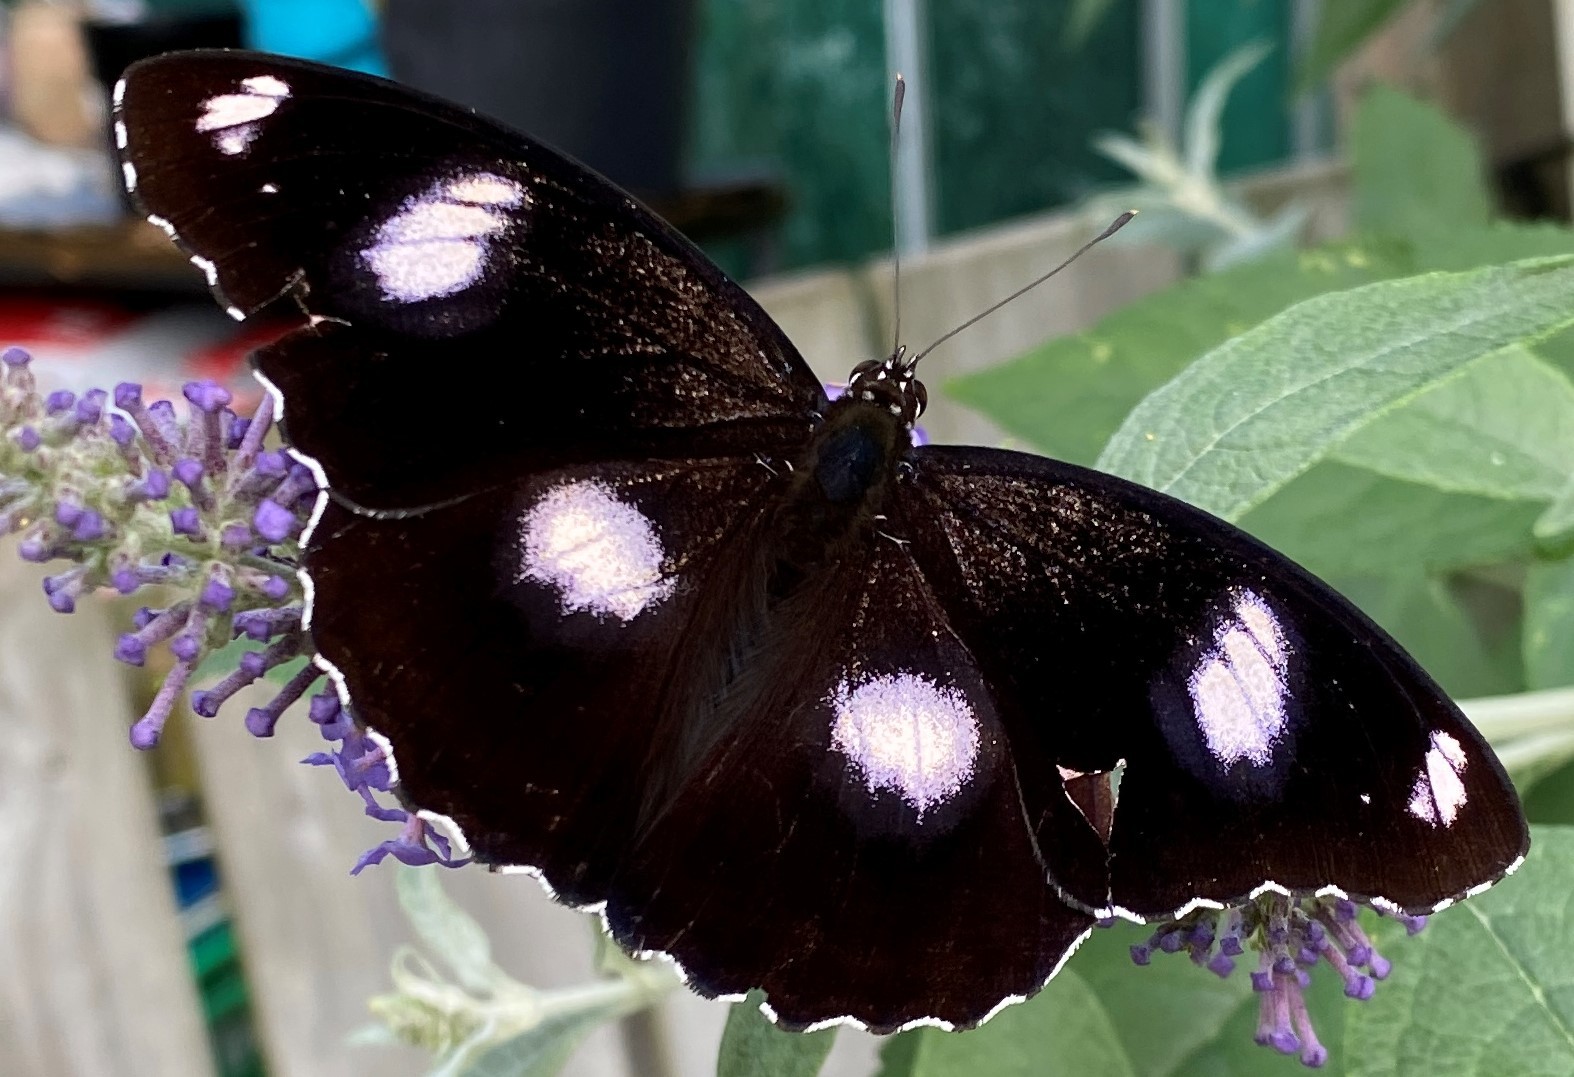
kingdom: Animalia
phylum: Arthropoda
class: Insecta
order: Lepidoptera
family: Nymphalidae
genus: Hypolimnas
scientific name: Hypolimnas bolina
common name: Great eggfly
